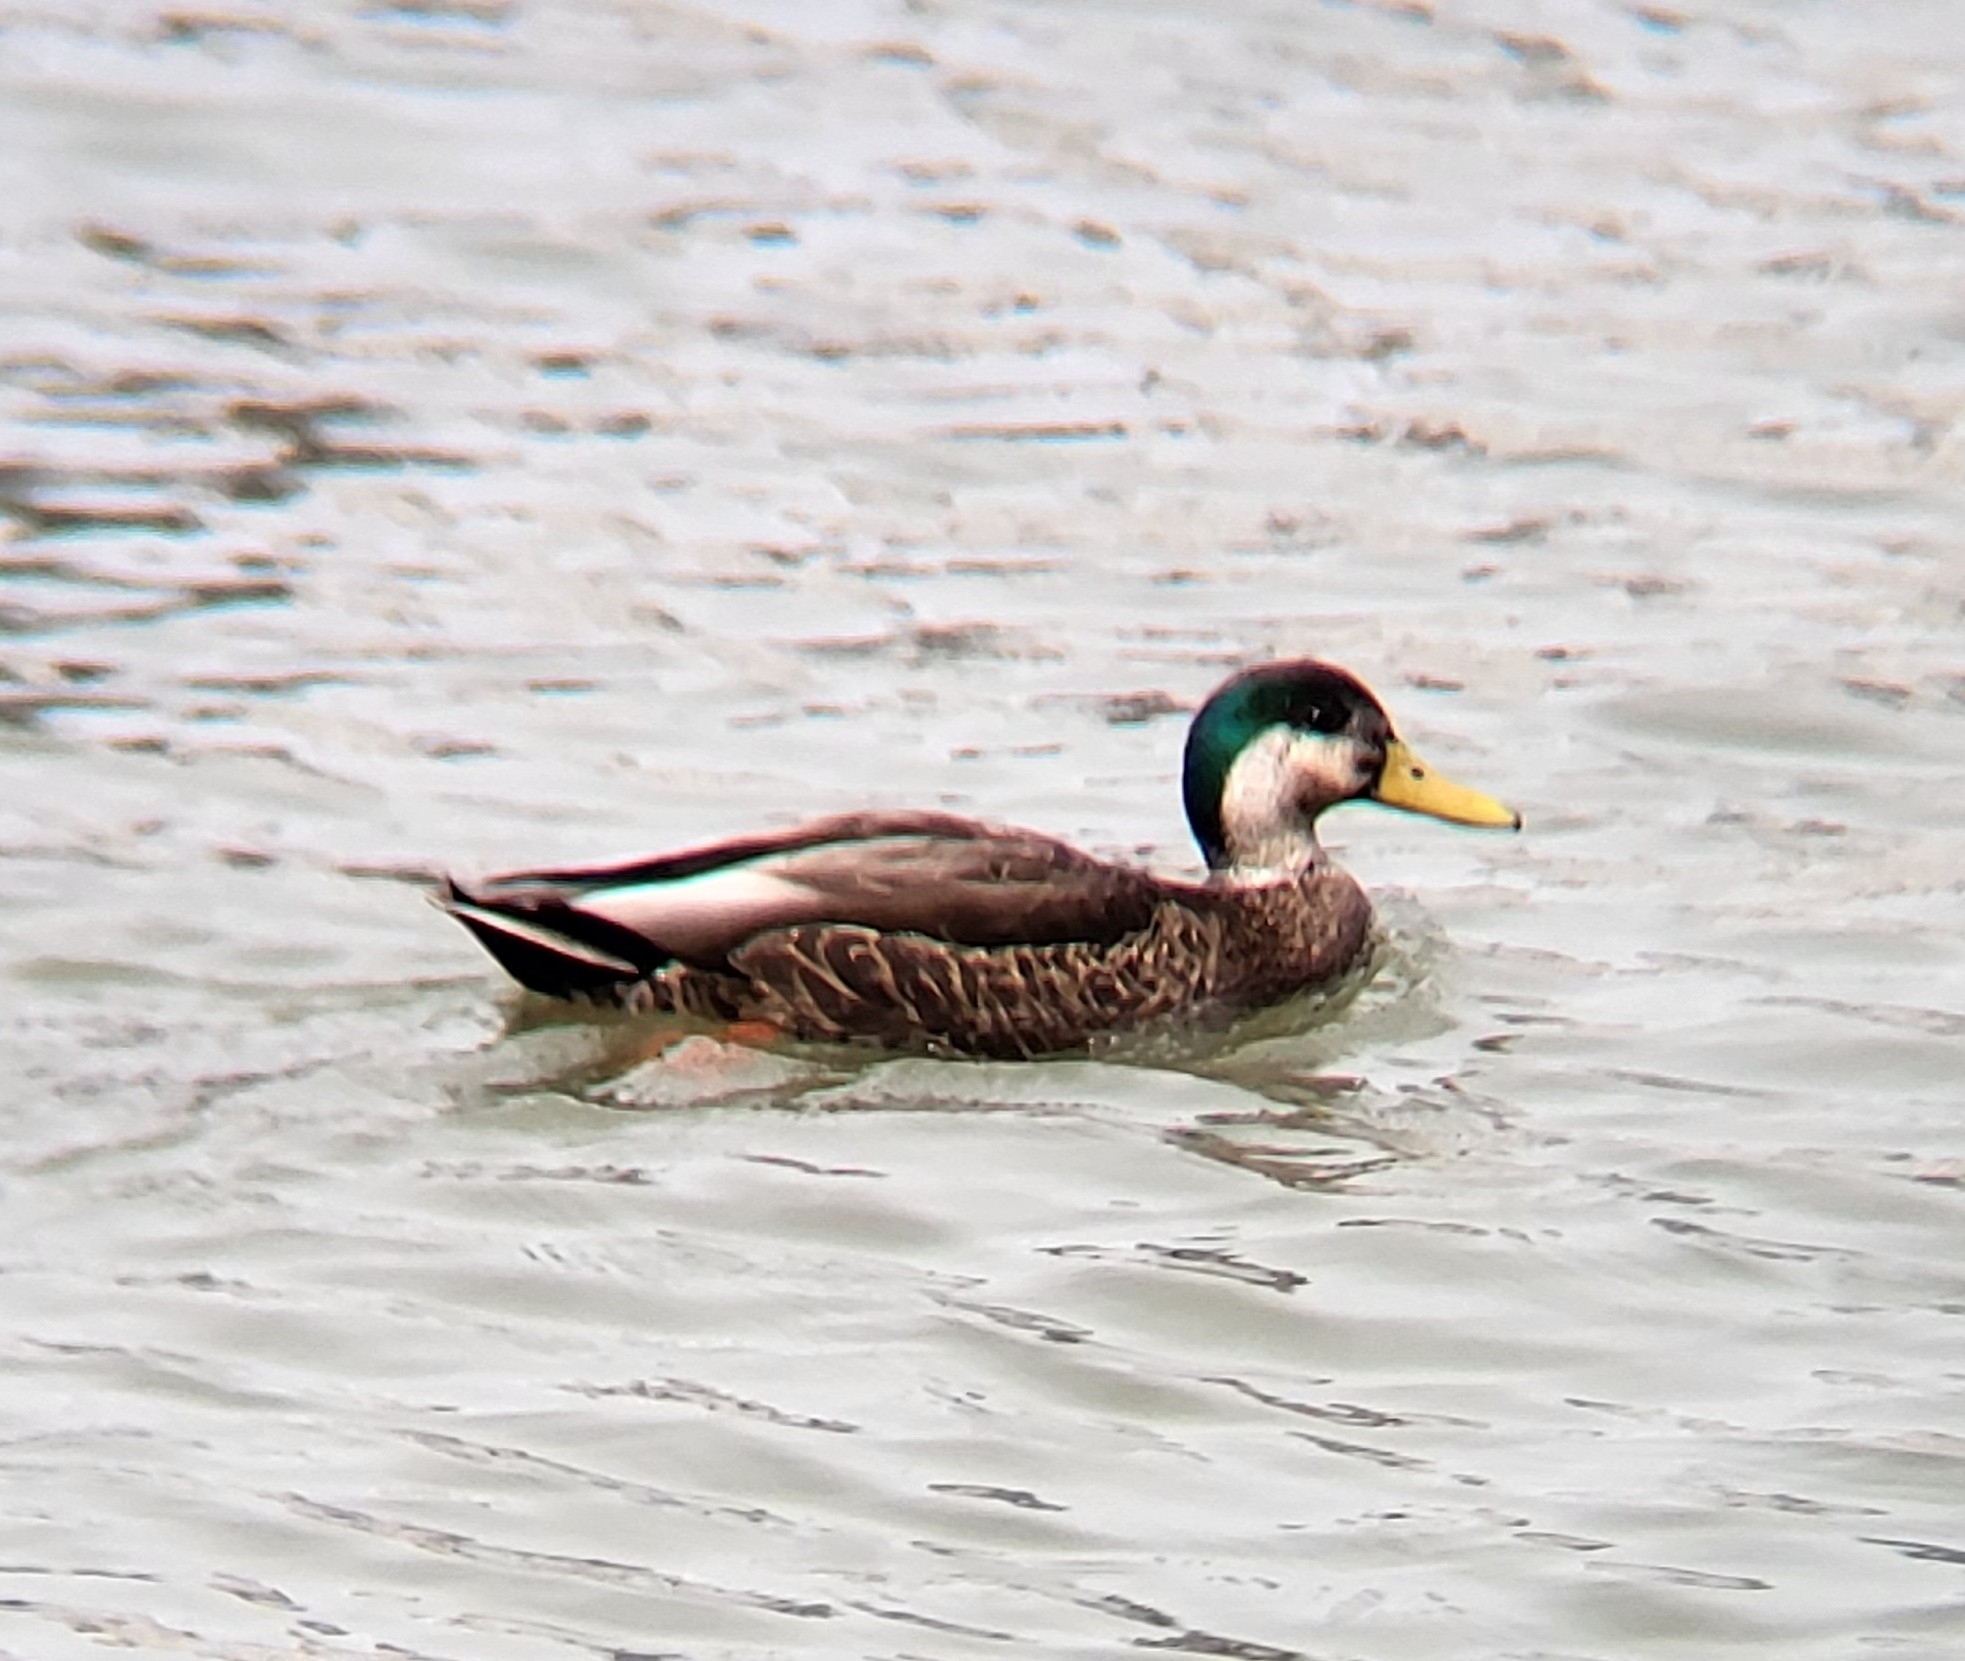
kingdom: Animalia
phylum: Chordata
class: Aves
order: Anseriformes
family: Anatidae
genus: Anas
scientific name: Anas
